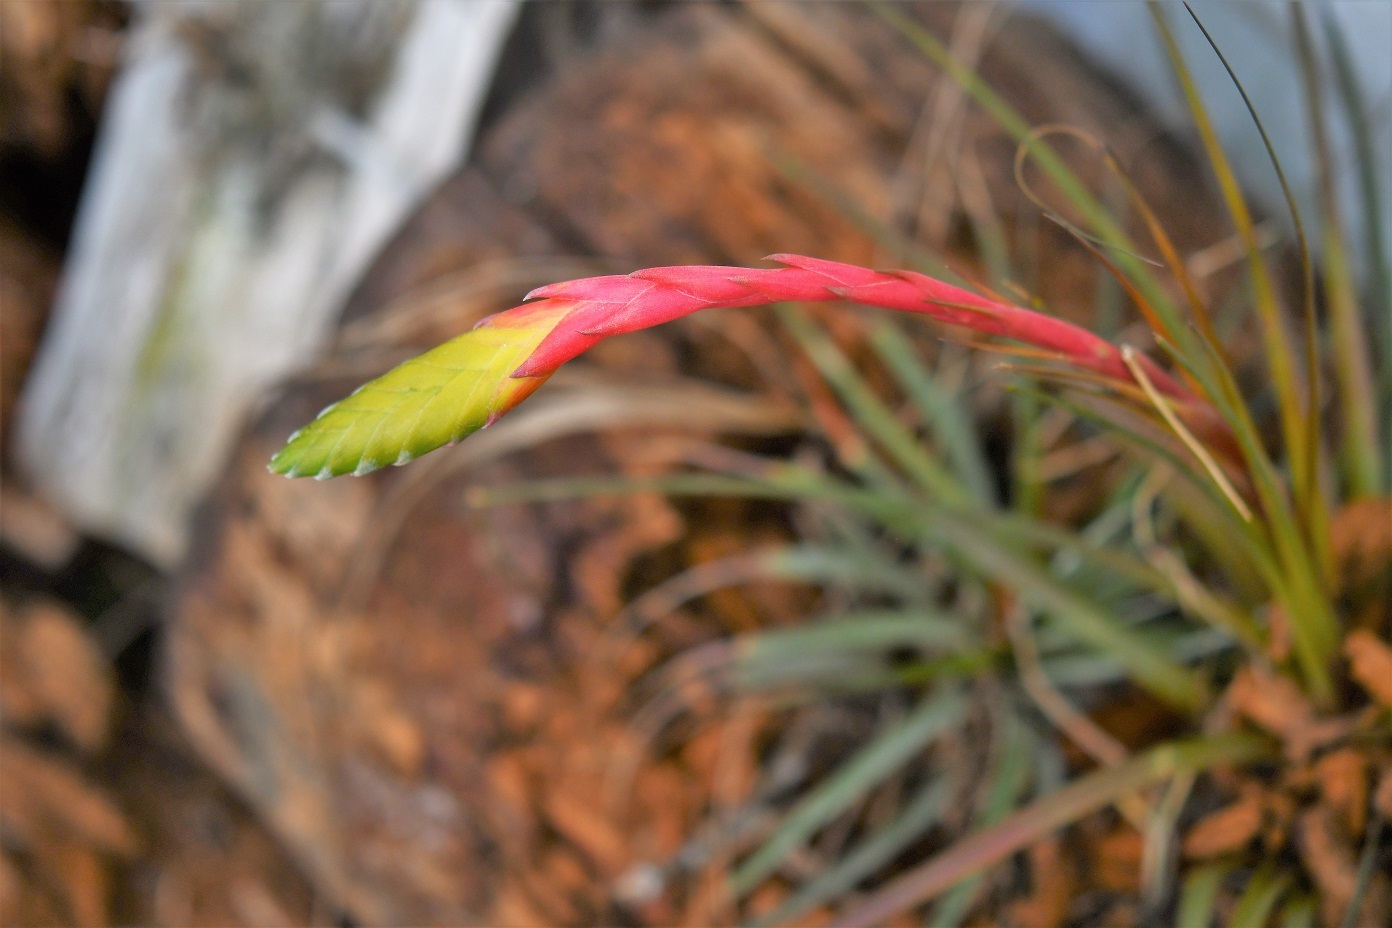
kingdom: Plantae
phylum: Tracheophyta
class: Liliopsida
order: Poales
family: Bromeliaceae
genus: Tillandsia
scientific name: Tillandsia tricolor
